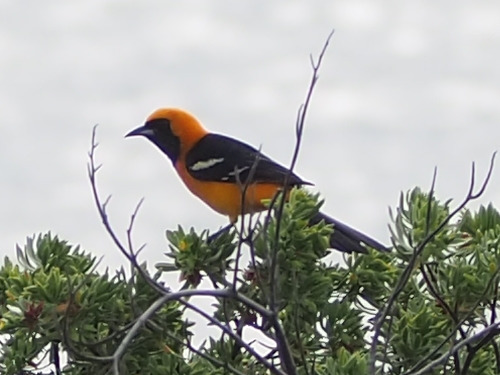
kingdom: Animalia
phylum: Chordata
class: Aves
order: Passeriformes
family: Icteridae
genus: Icterus
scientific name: Icterus cucullatus
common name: Hooded oriole
